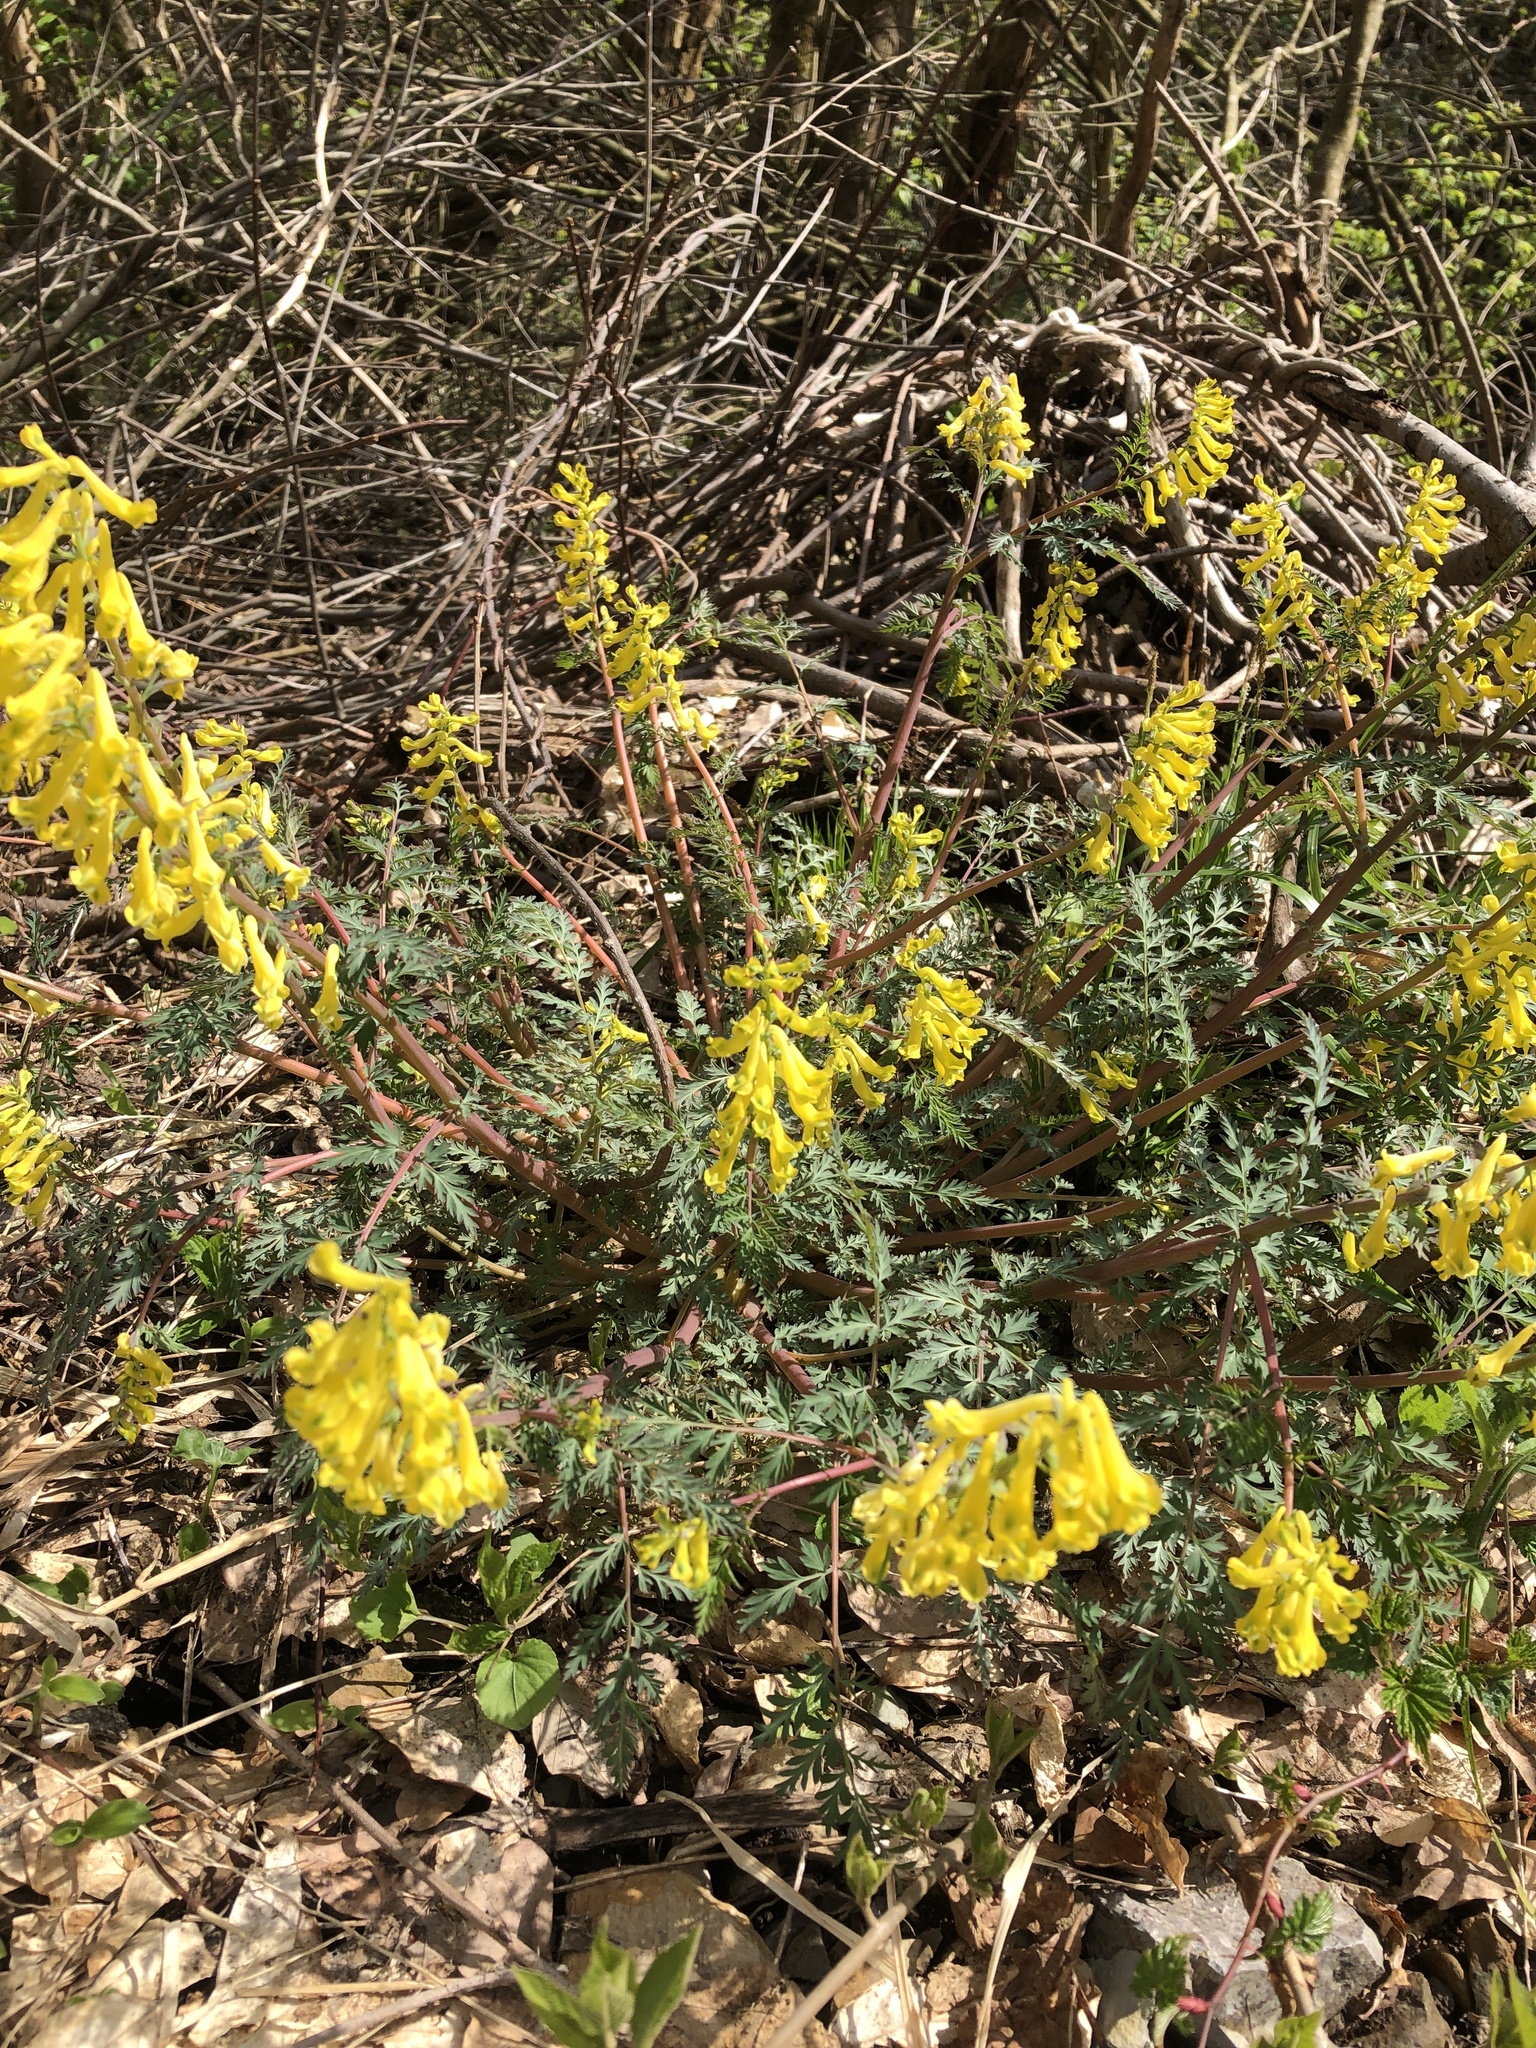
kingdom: Plantae
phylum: Tracheophyta
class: Magnoliopsida
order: Ranunculales
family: Papaveraceae
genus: Corydalis
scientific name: Corydalis pallida
